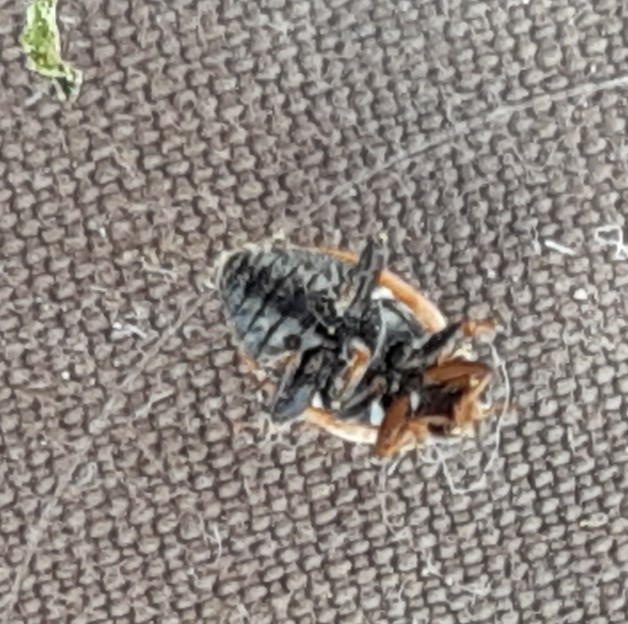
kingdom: Animalia
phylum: Arthropoda
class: Insecta
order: Coleoptera
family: Coccinellidae
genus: Hippodamia
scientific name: Hippodamia variegata
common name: Ladybird beetle
